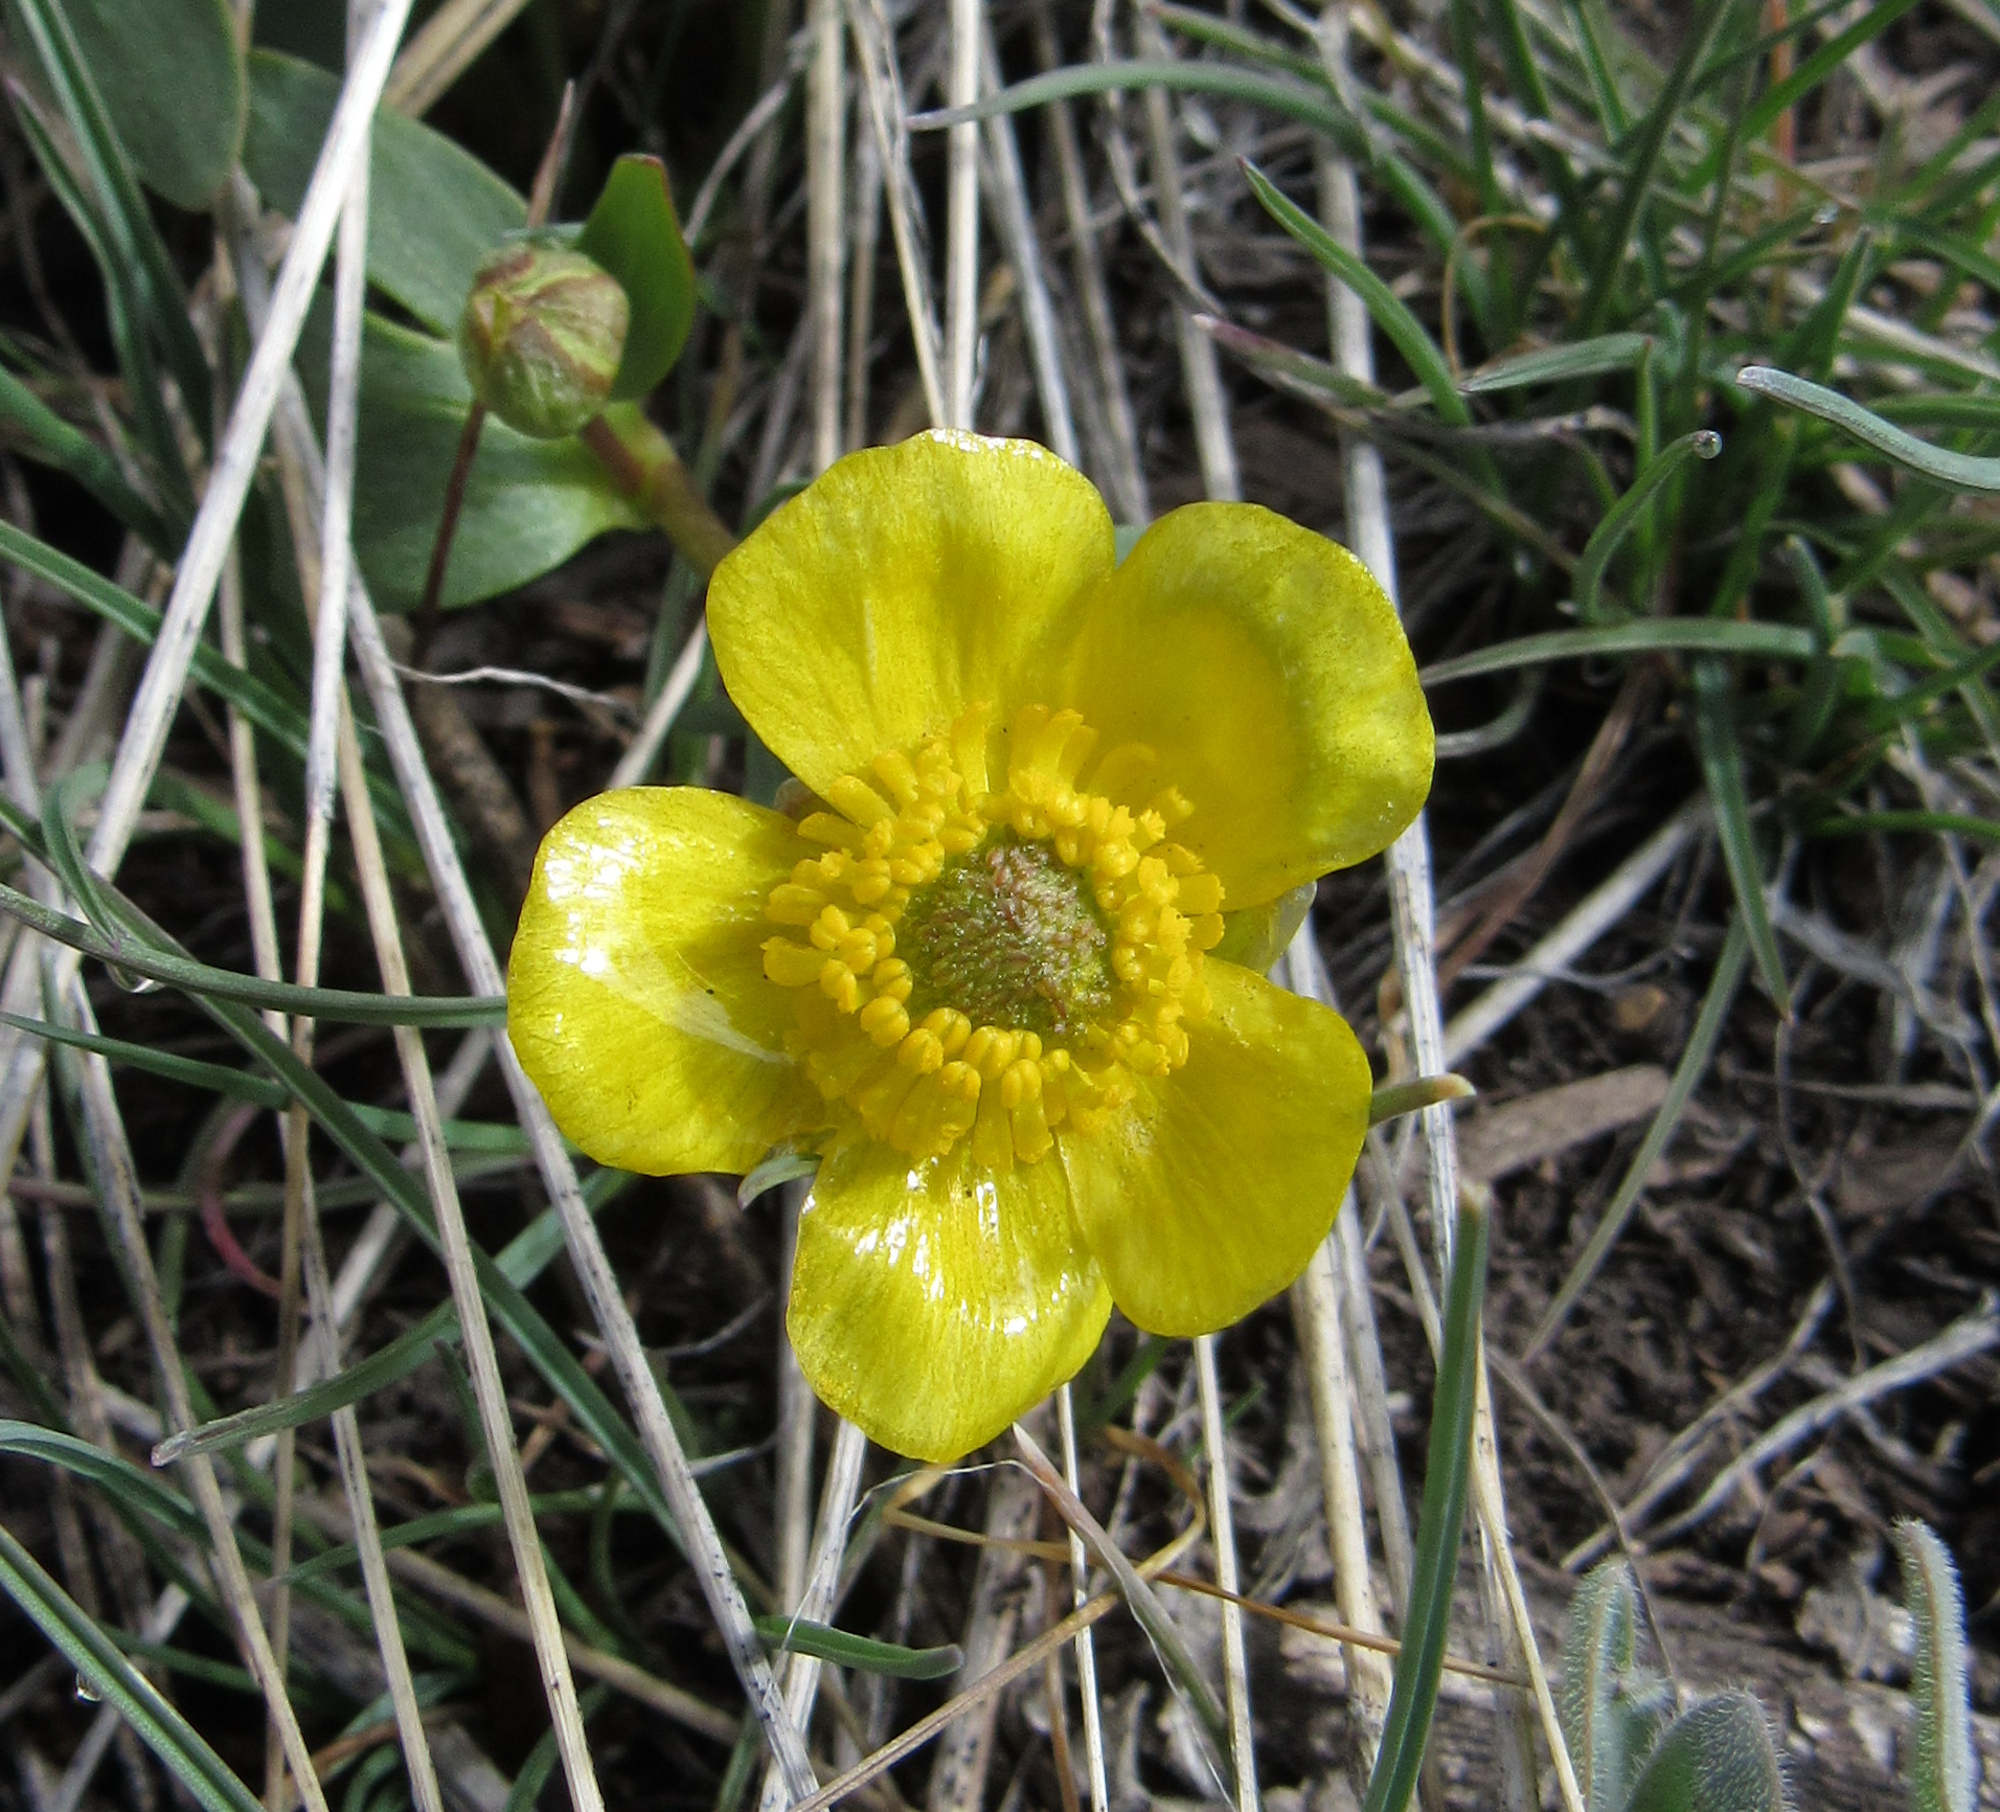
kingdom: Plantae
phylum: Tracheophyta
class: Magnoliopsida
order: Ranunculales
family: Ranunculaceae
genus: Ranunculus
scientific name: Ranunculus glaberrimus
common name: Sagebrush buttercup
